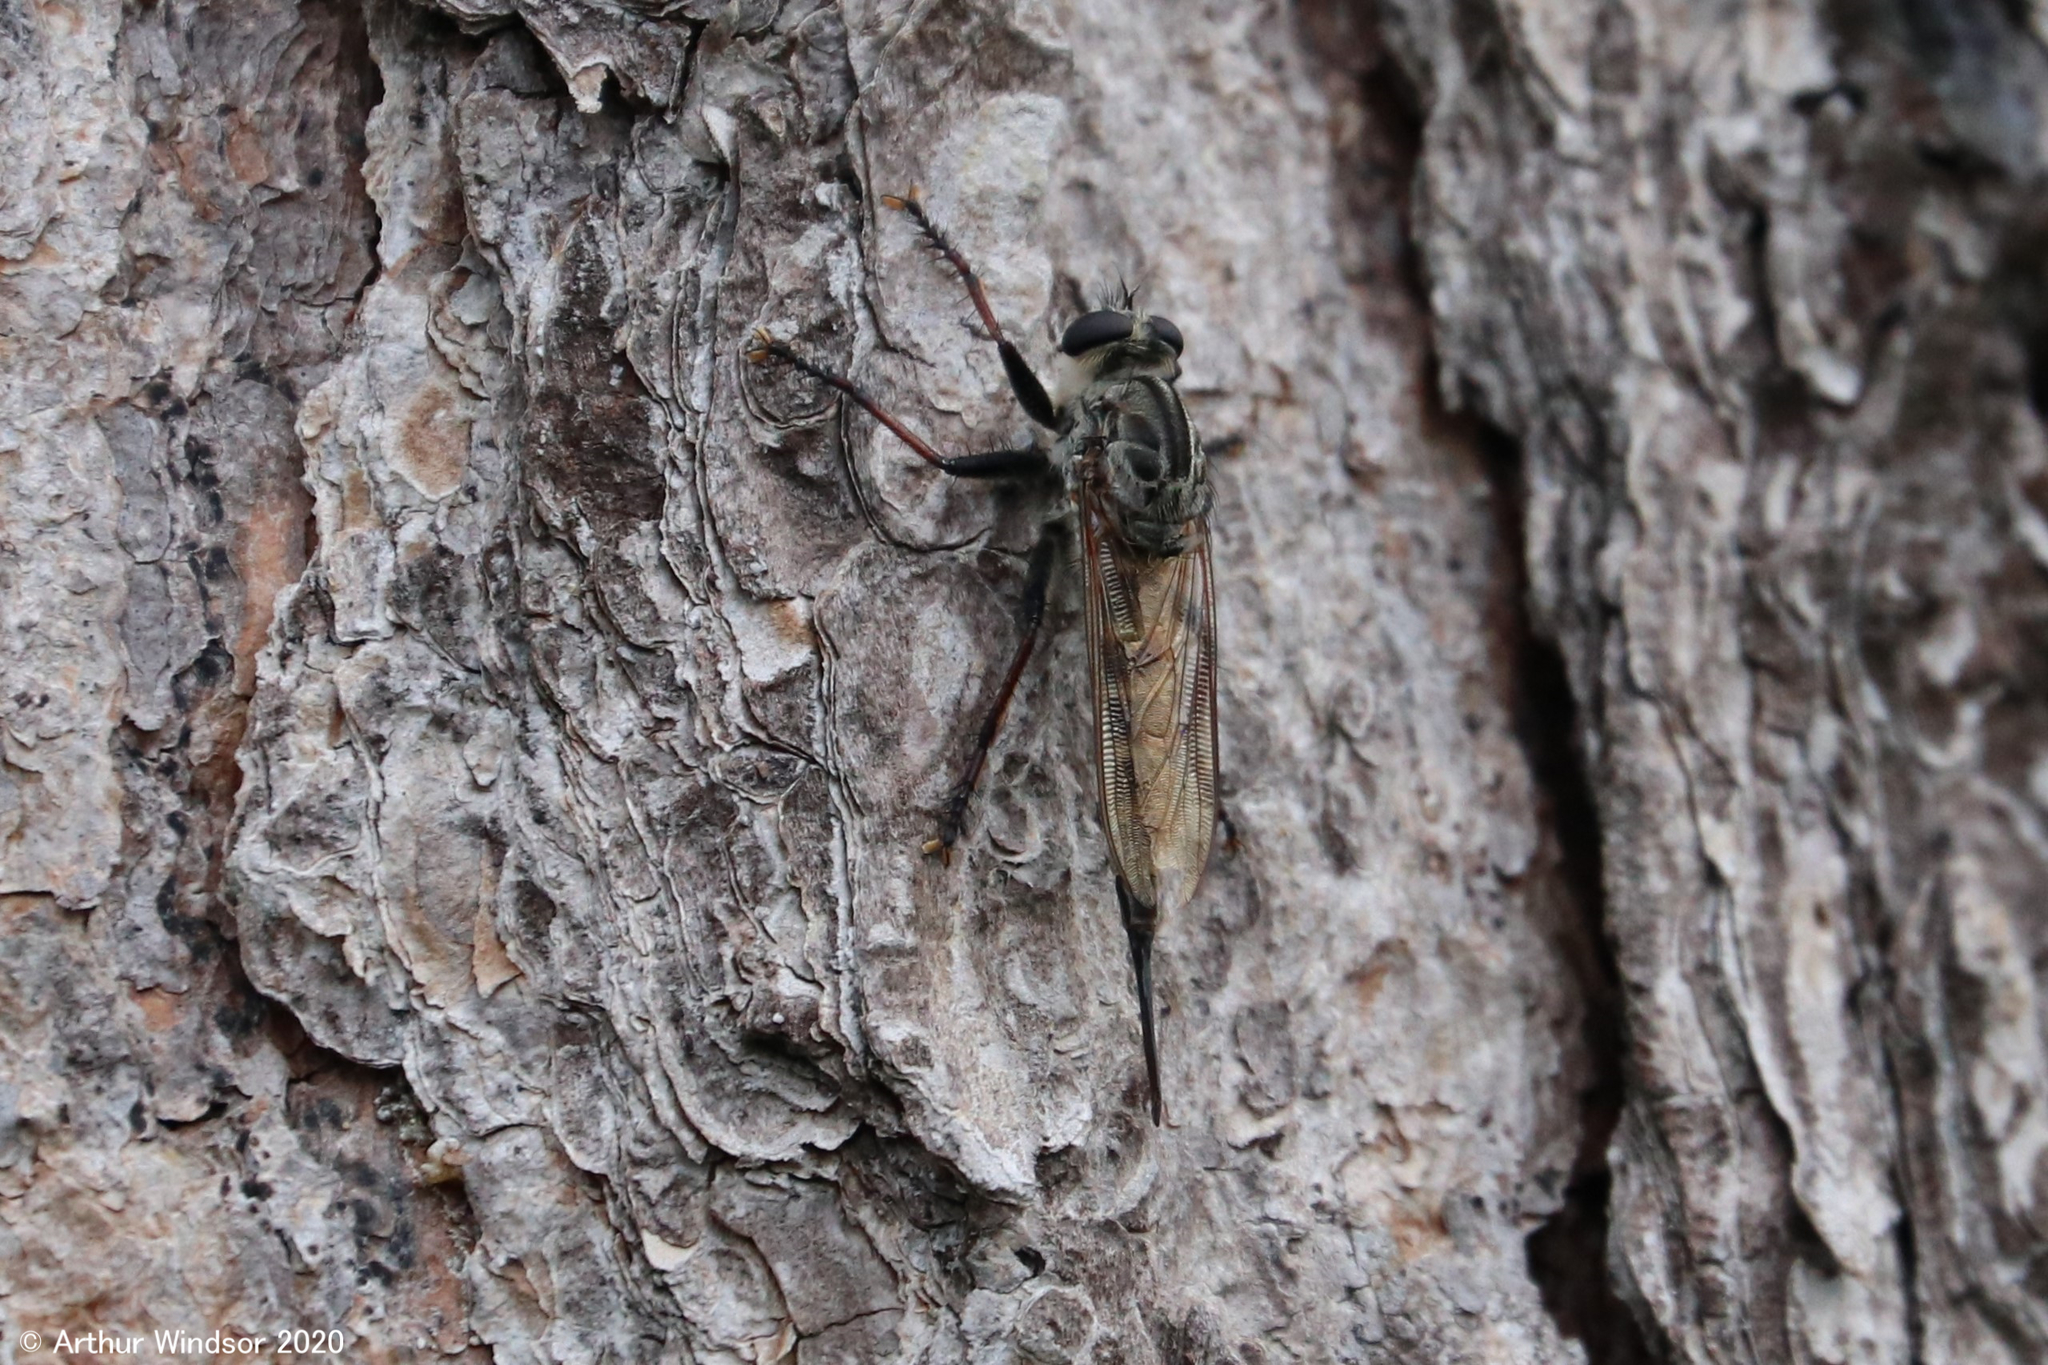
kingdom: Animalia
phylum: Arthropoda
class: Insecta
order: Diptera
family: Asilidae
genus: Efferia
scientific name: Efferia femorata
